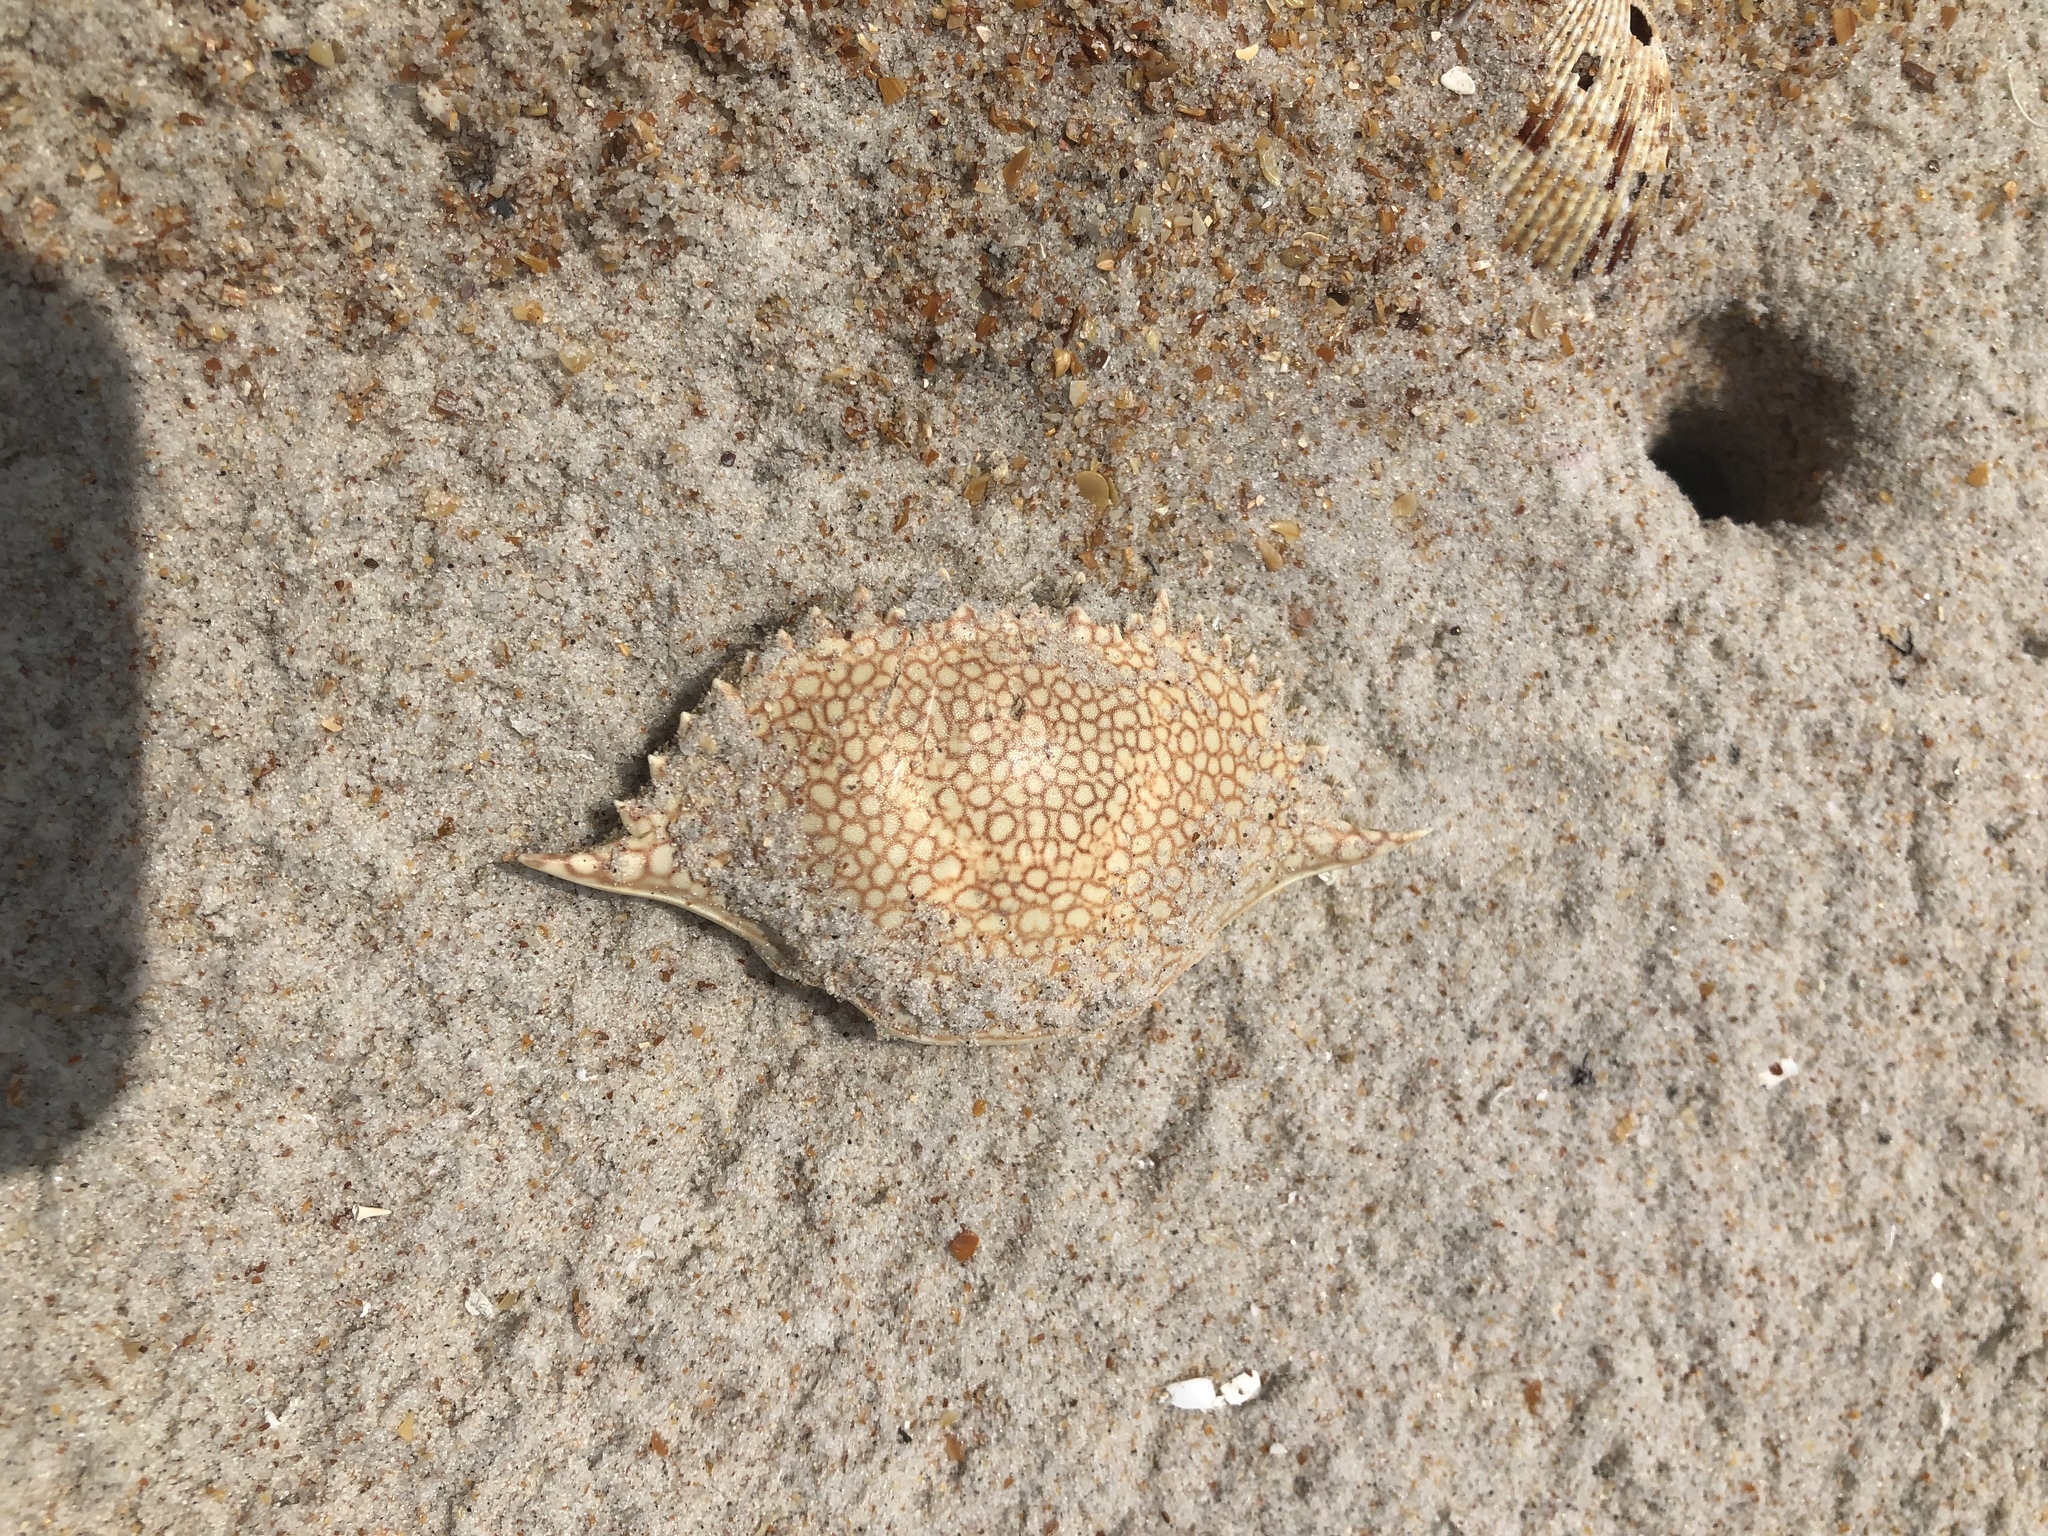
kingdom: Animalia
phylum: Arthropoda
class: Malacostraca
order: Decapoda
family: Portunidae
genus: Arenaeus
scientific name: Arenaeus cribrarius
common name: Speckled crab
